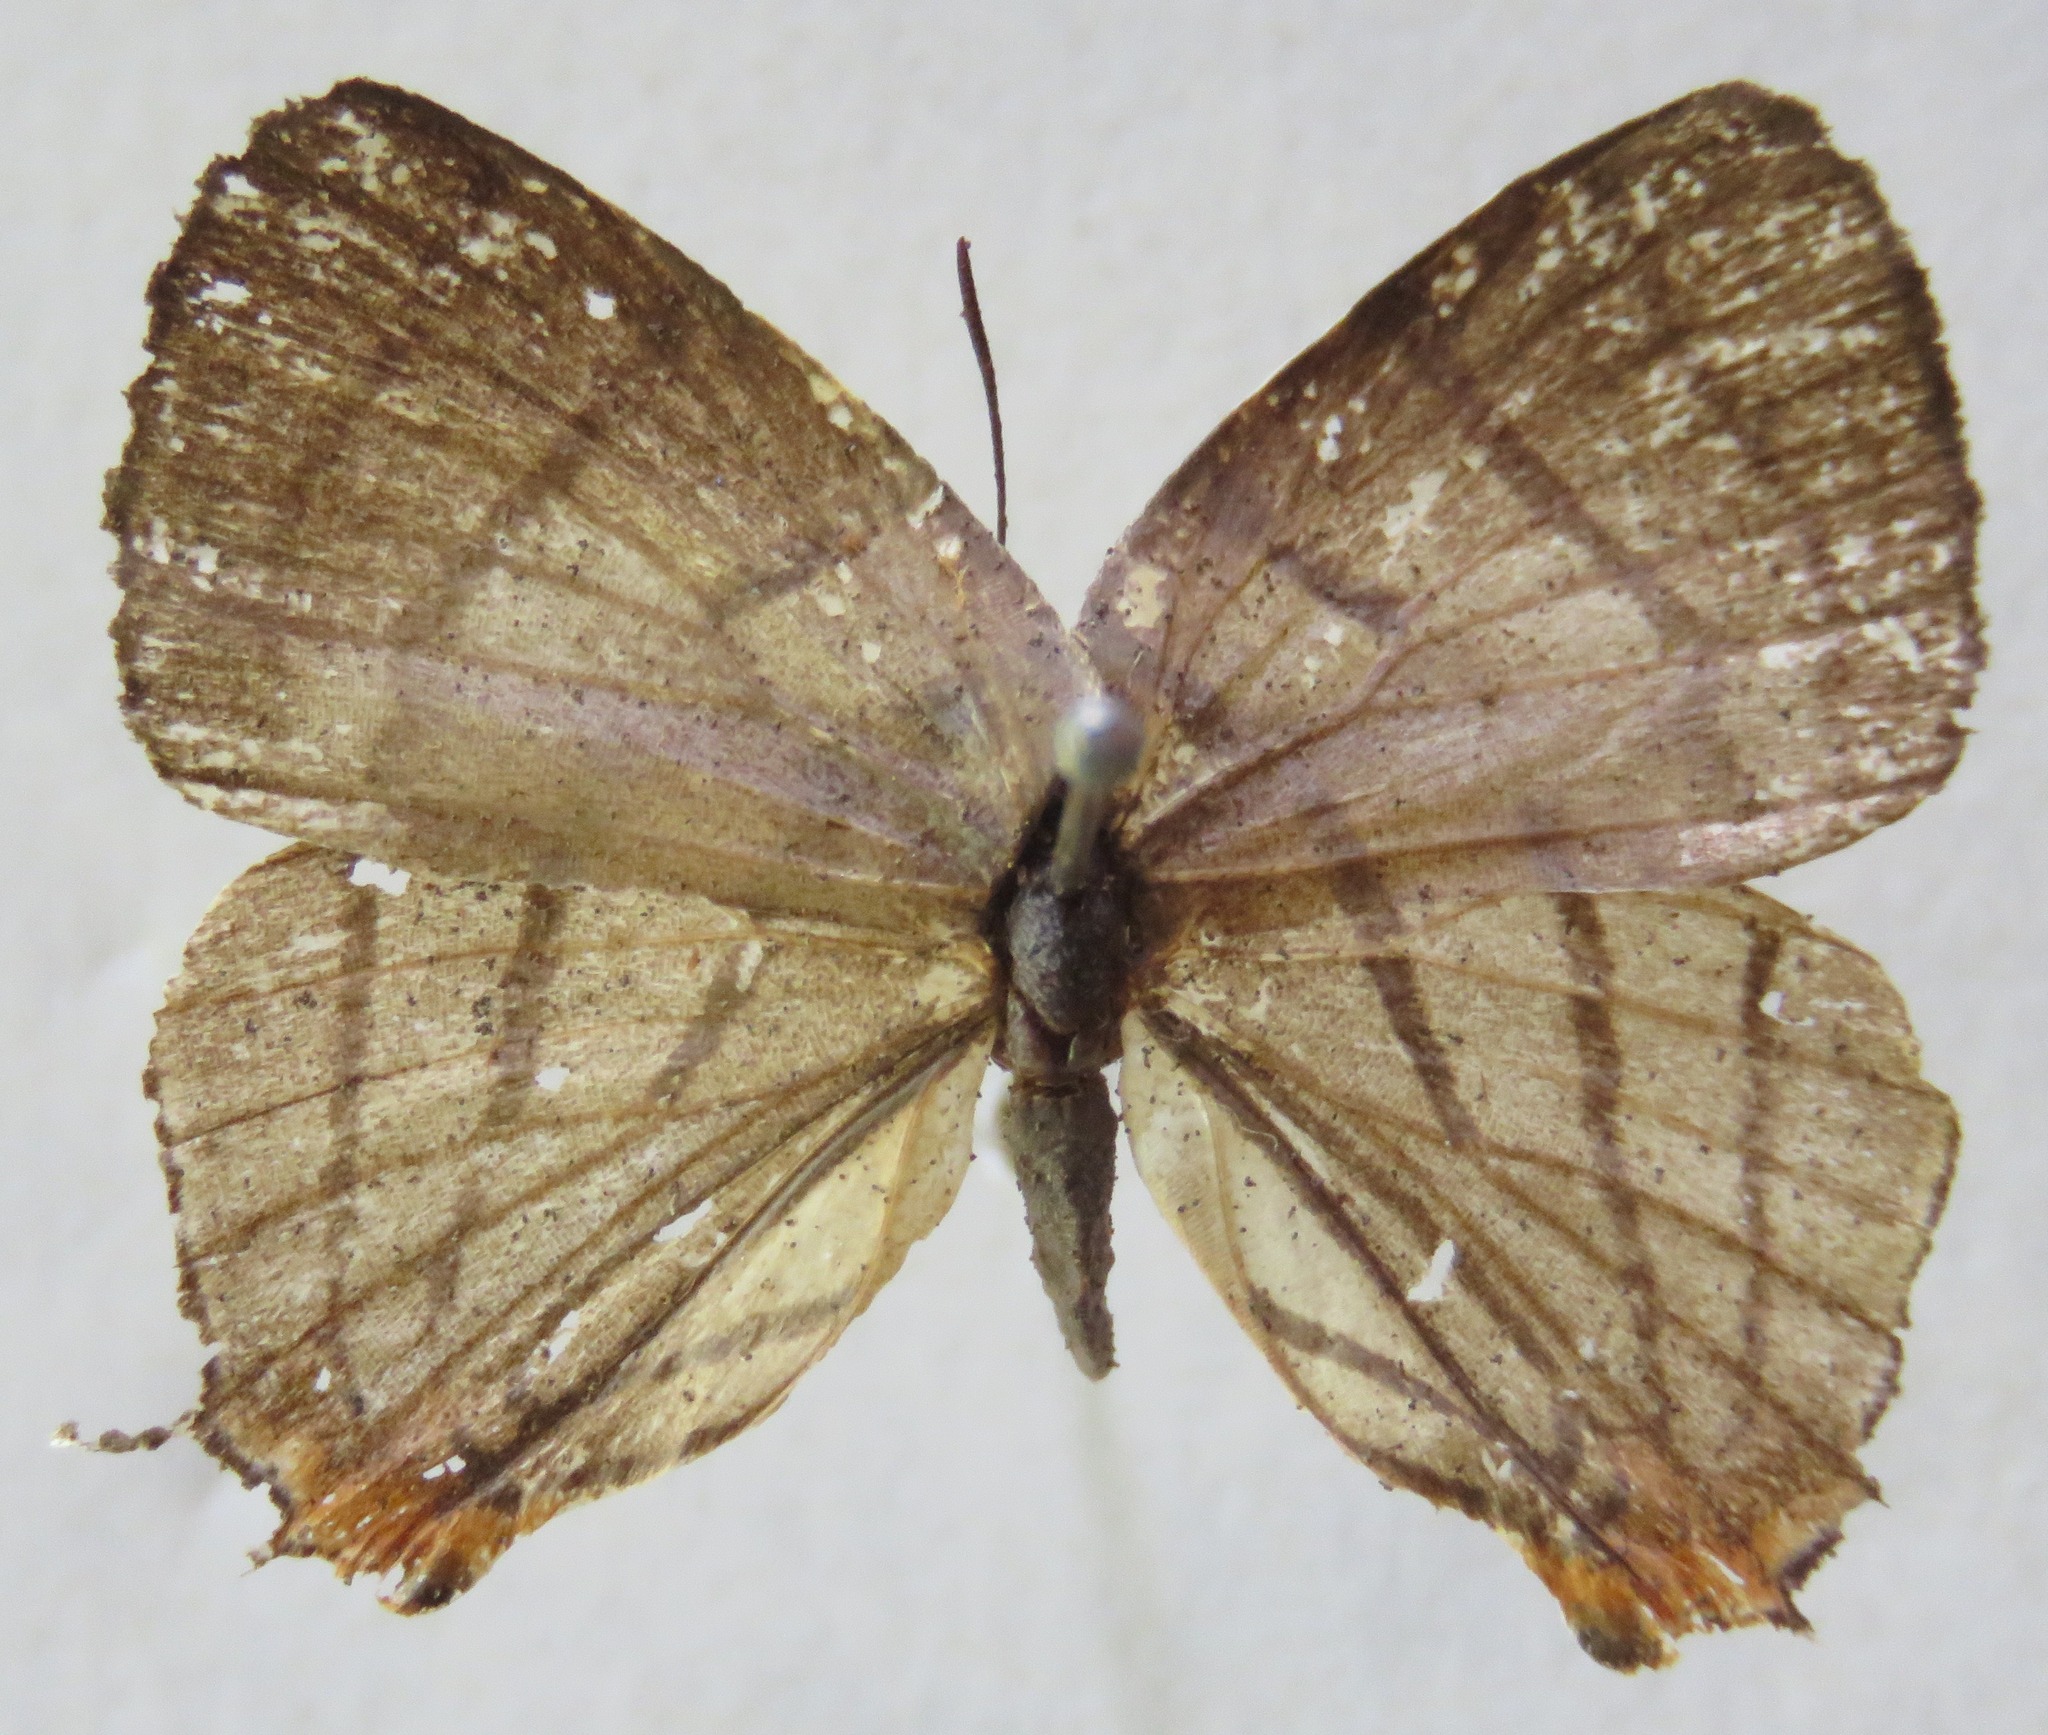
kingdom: Animalia
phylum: Arthropoda
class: Insecta
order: Lepidoptera
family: Lycaenidae
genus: Arawacus
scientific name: Arawacus sito
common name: Fine-lined hairstreak
